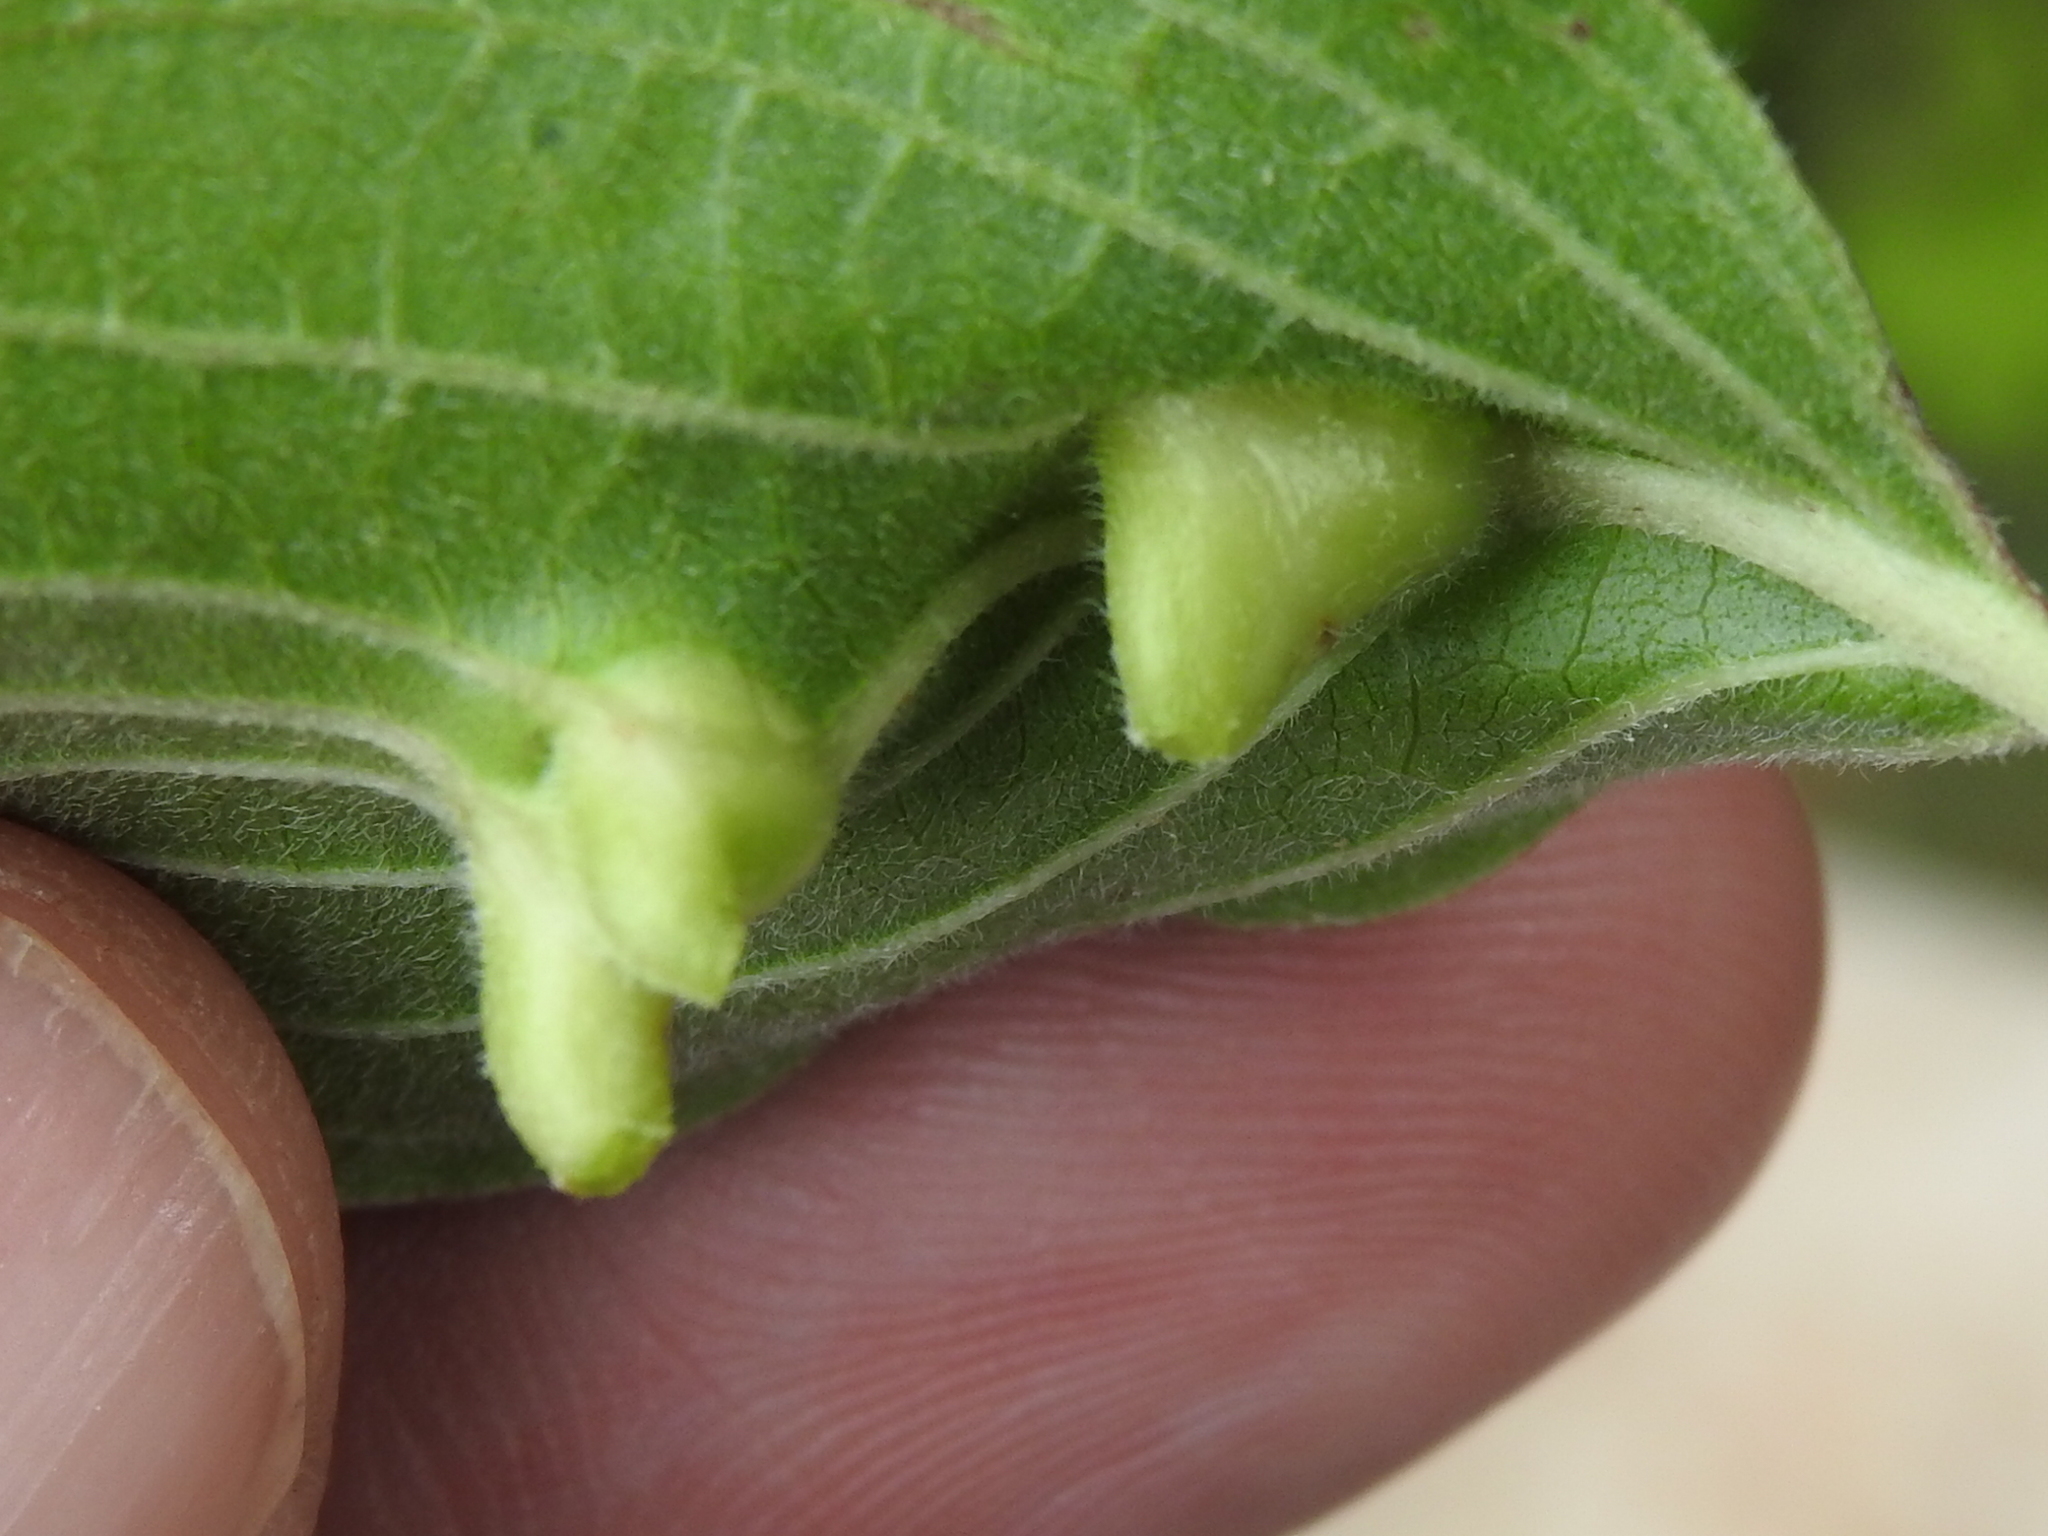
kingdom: Animalia
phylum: Arthropoda
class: Insecta
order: Diptera
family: Cecidomyiidae
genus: Dasineura
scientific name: Dasineura tuba
